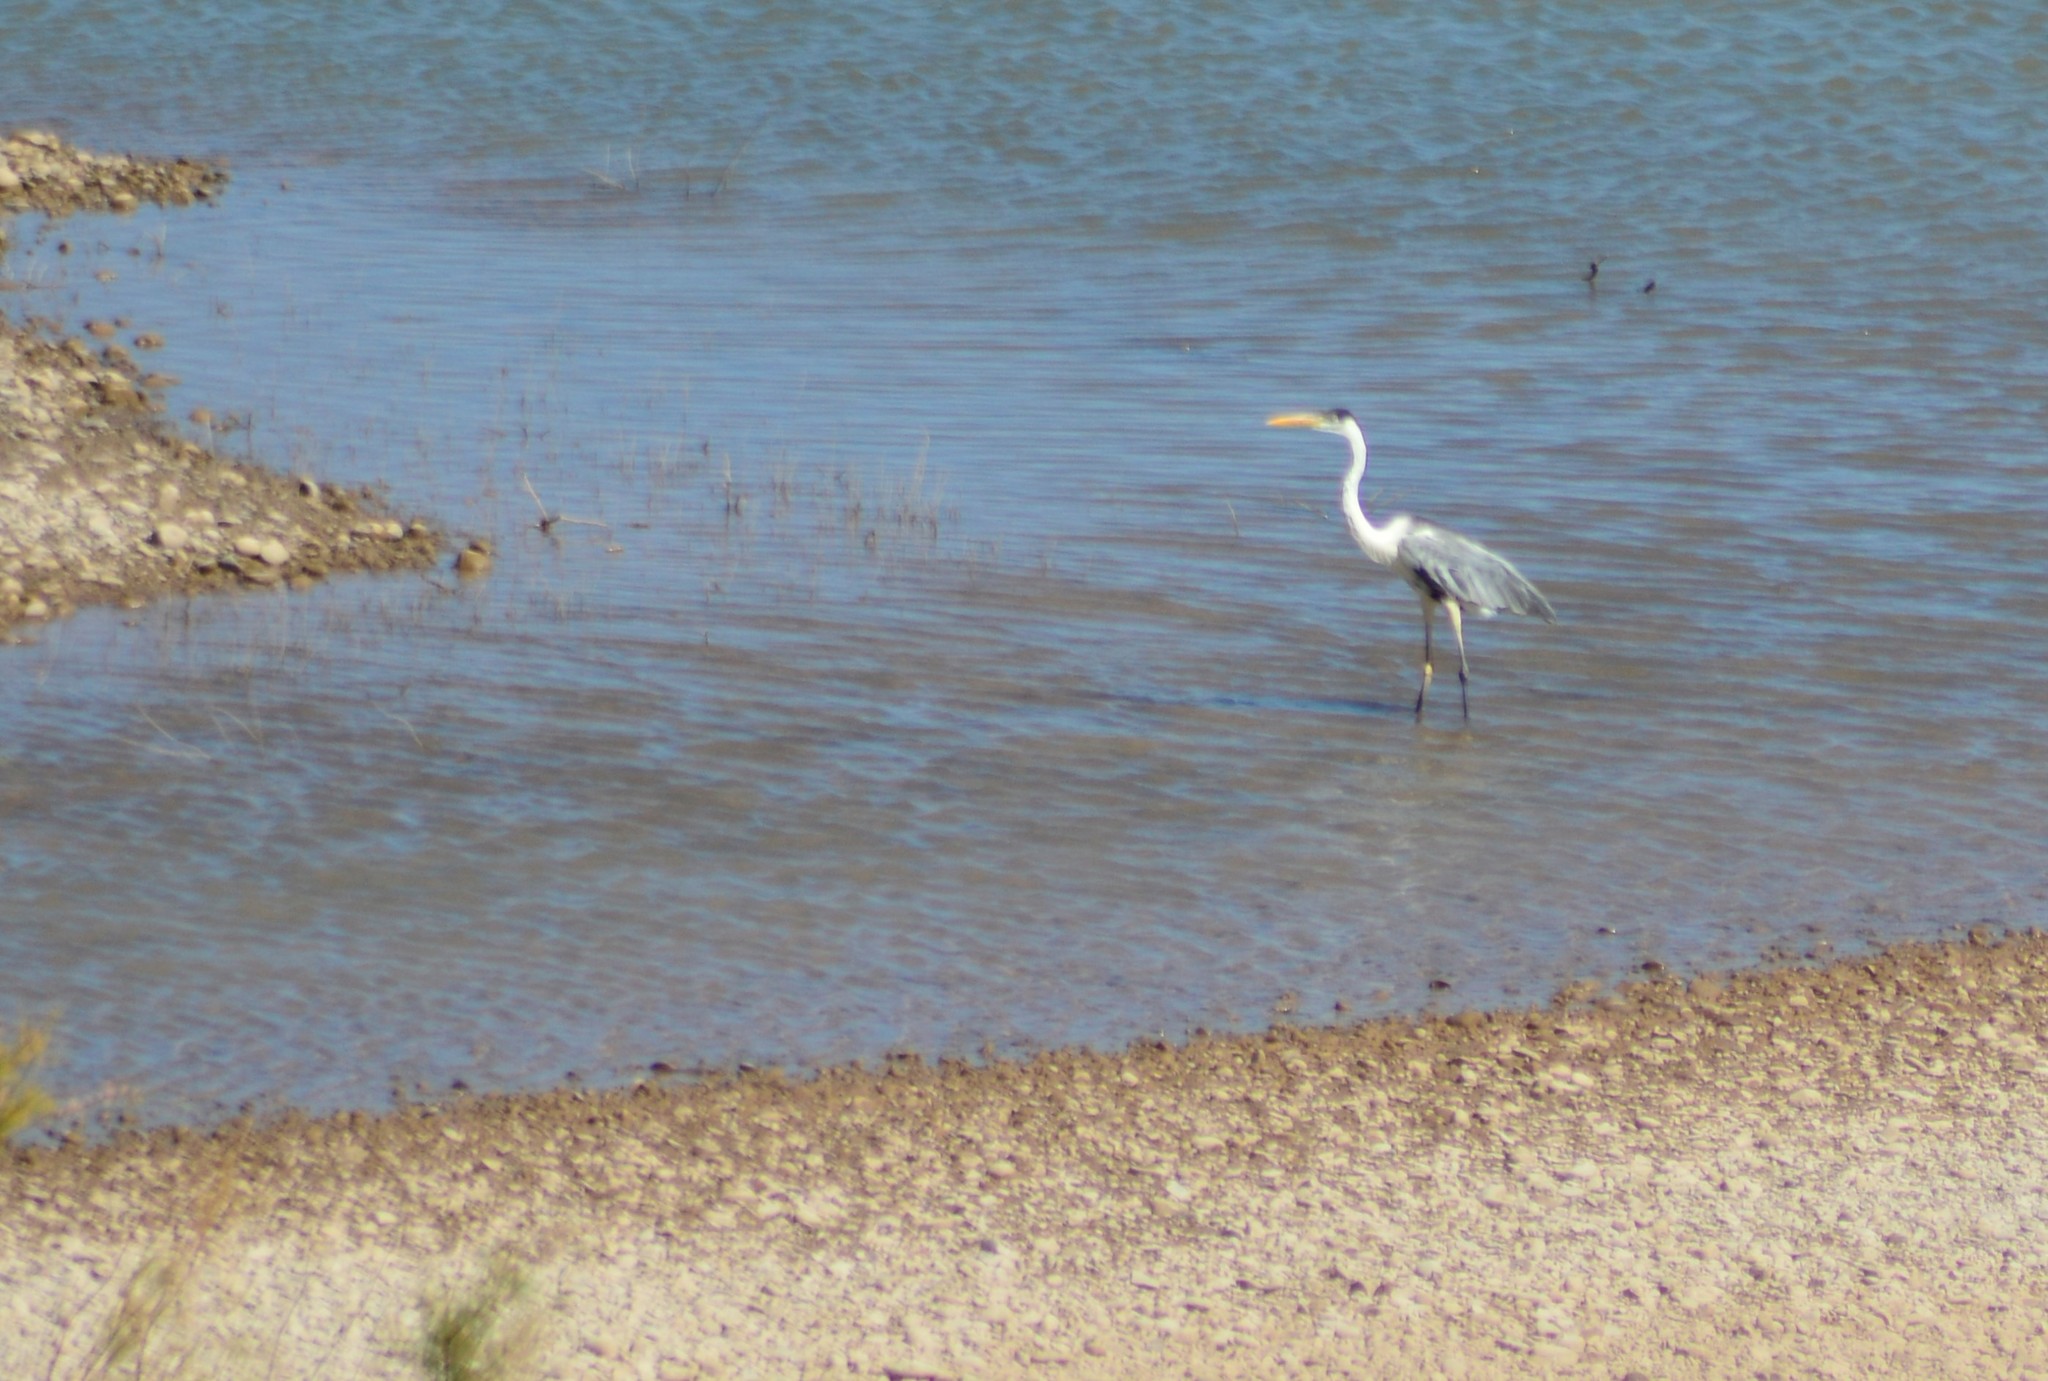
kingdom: Animalia
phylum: Chordata
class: Aves
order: Pelecaniformes
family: Ardeidae
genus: Ardea
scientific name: Ardea cocoi
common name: Cocoi heron
